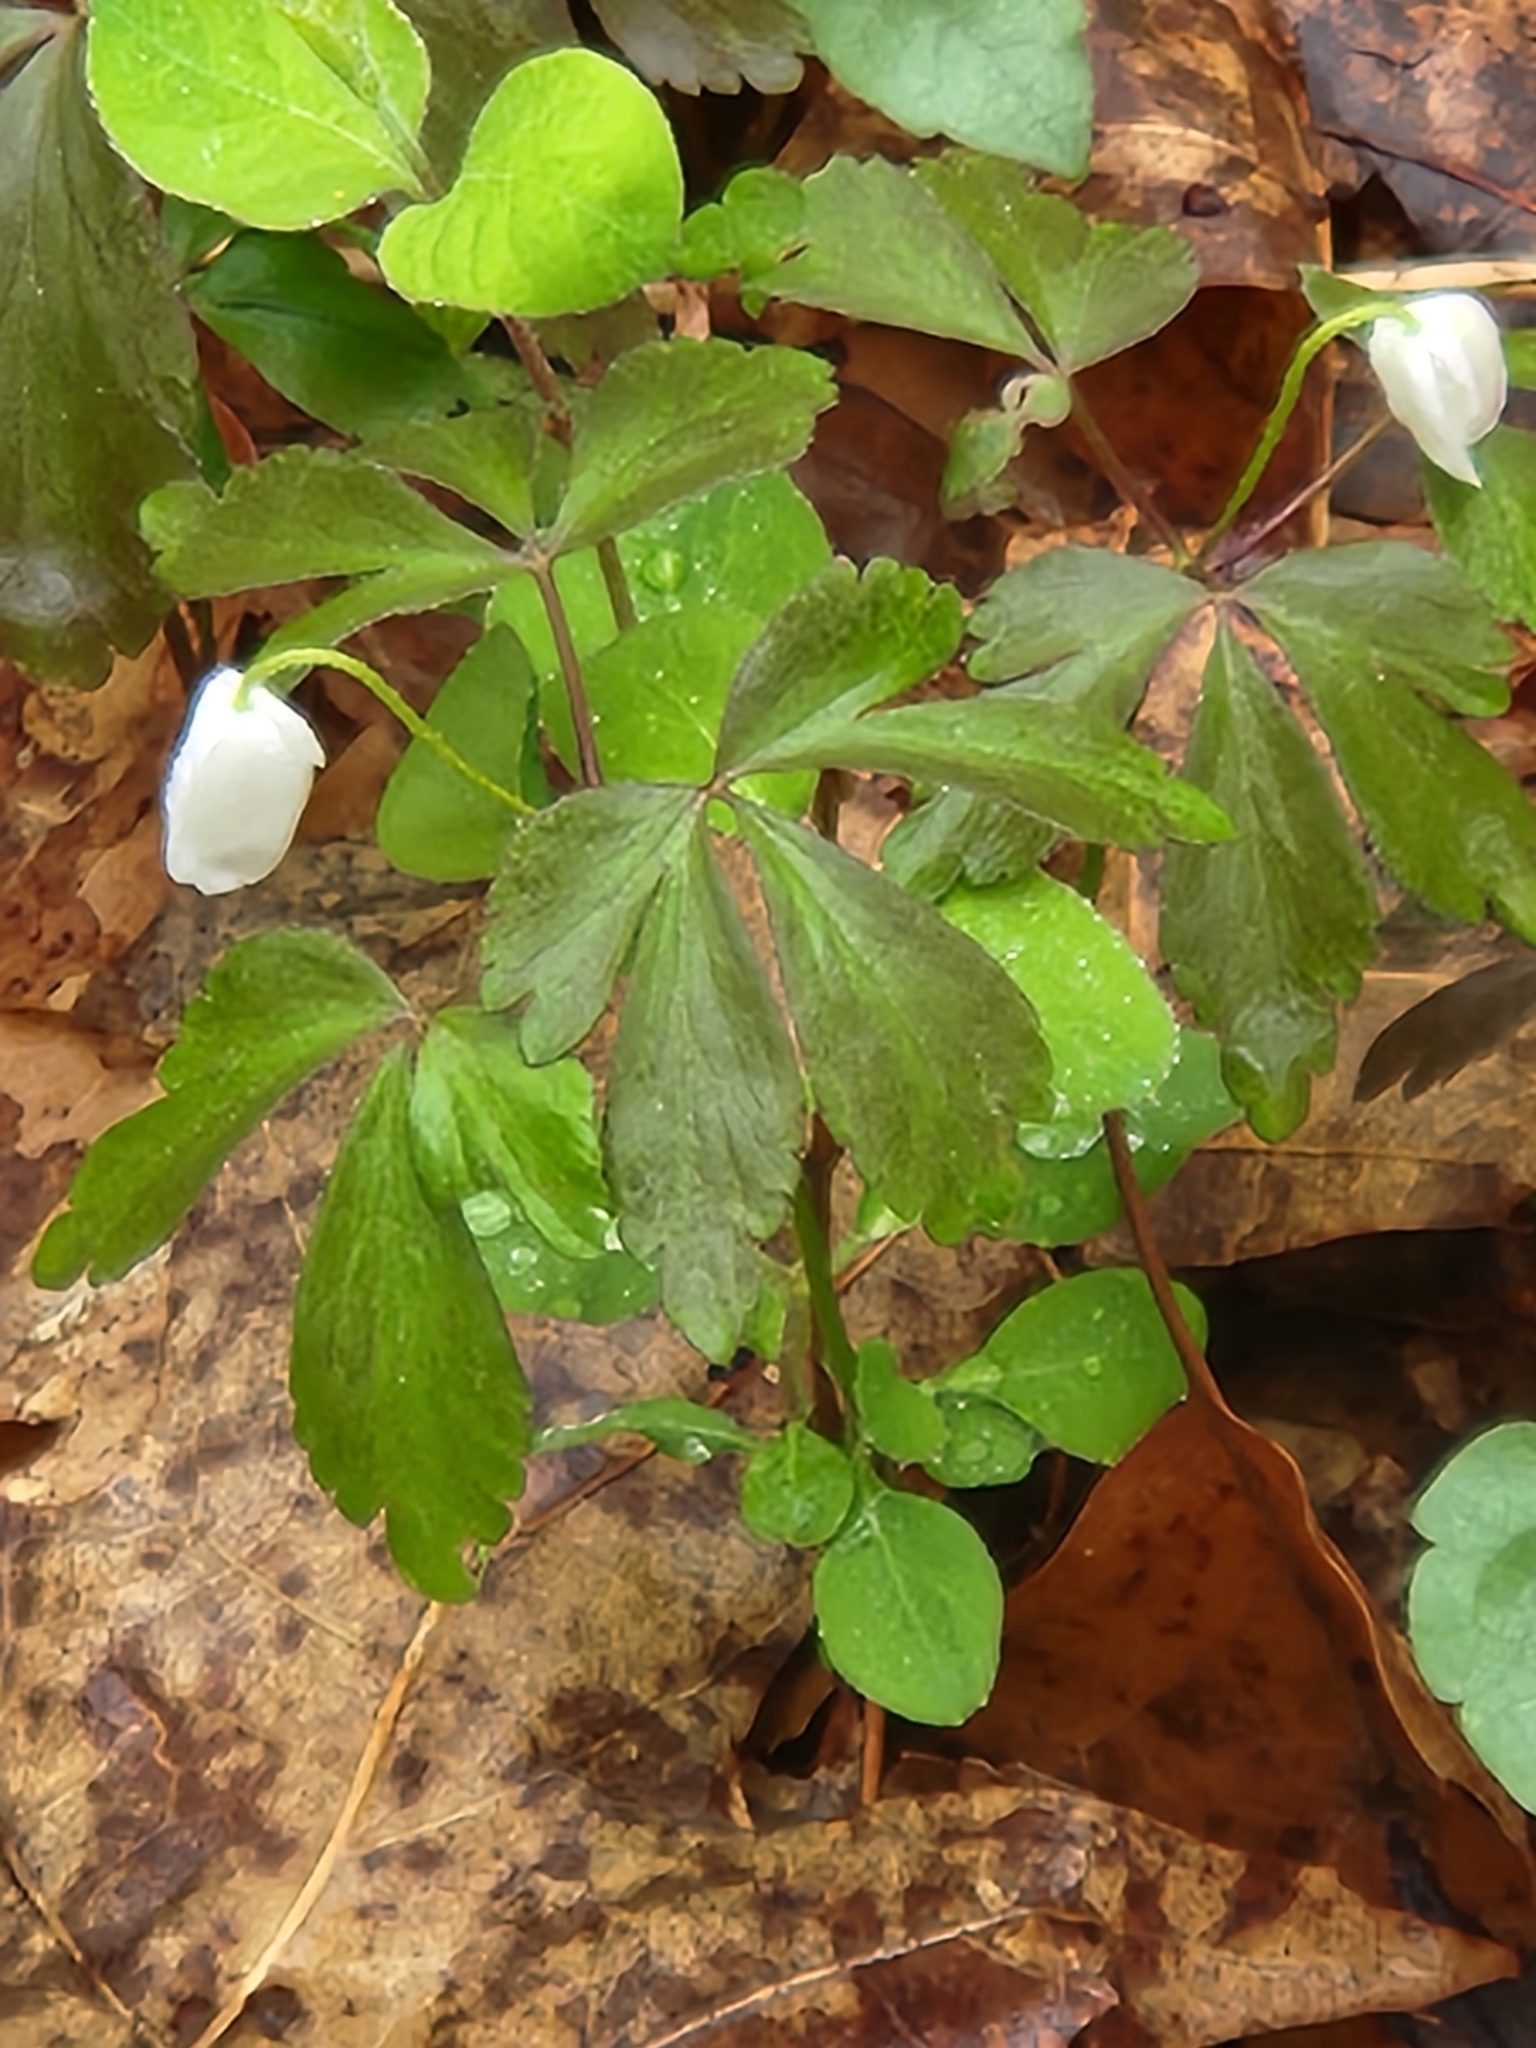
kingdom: Plantae
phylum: Tracheophyta
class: Magnoliopsida
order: Ranunculales
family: Ranunculaceae
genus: Anemone
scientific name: Anemone quinquefolia
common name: Wood anemone
